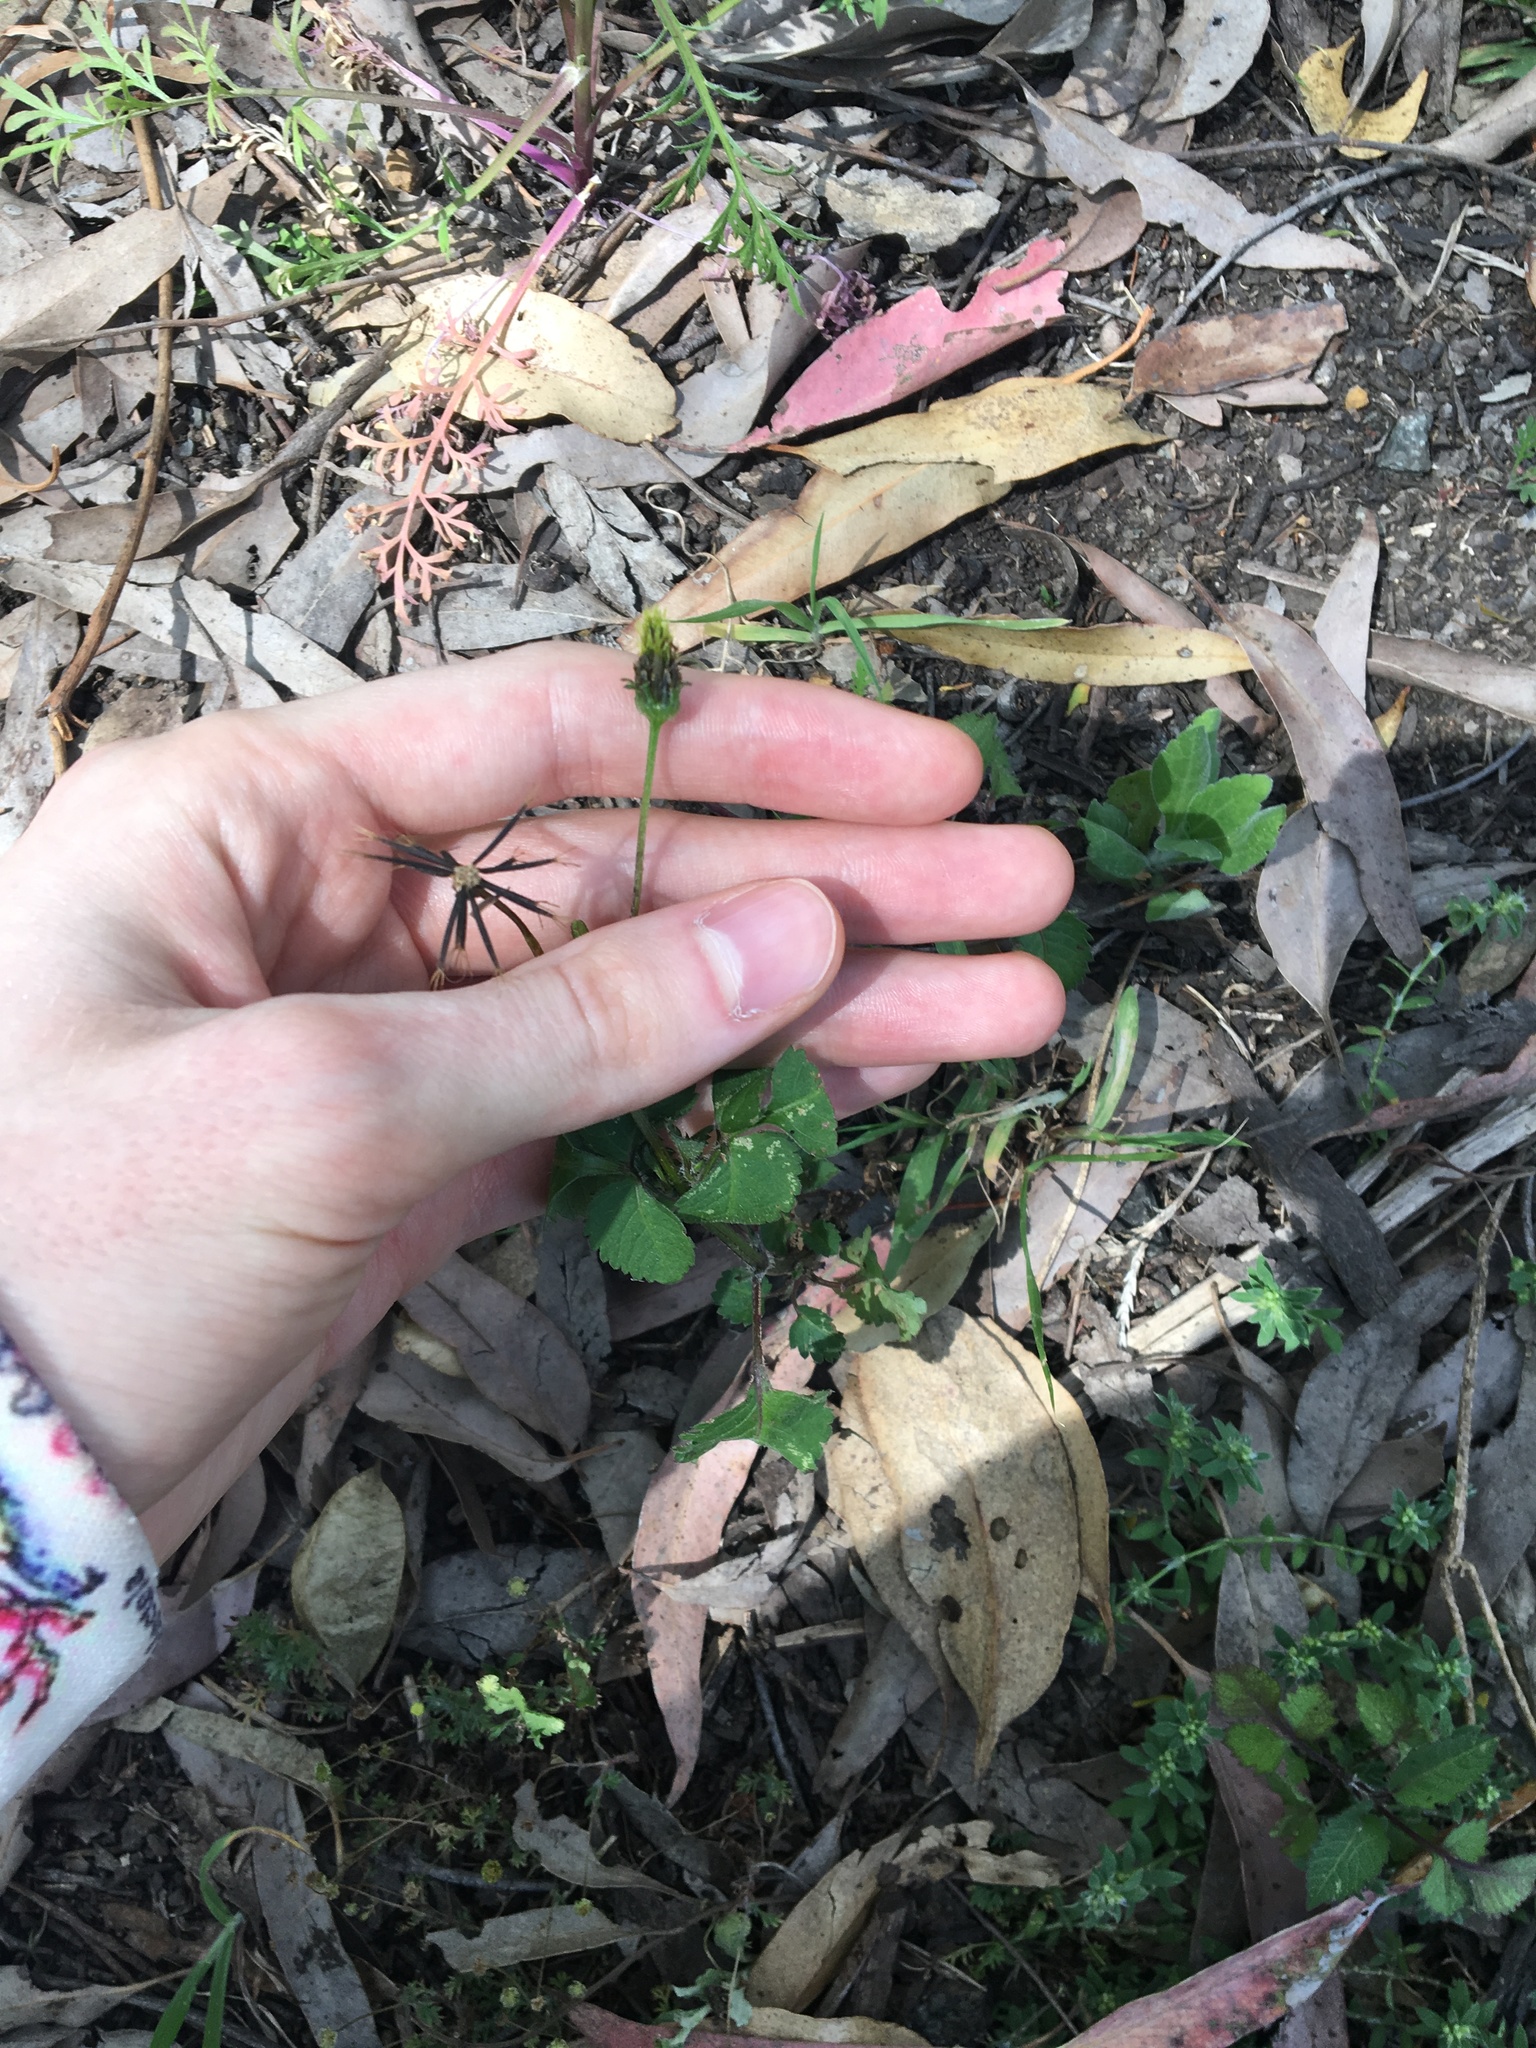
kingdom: Plantae
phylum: Tracheophyta
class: Magnoliopsida
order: Asterales
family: Asteraceae
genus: Bidens
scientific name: Bidens pilosa
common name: Black-jack
